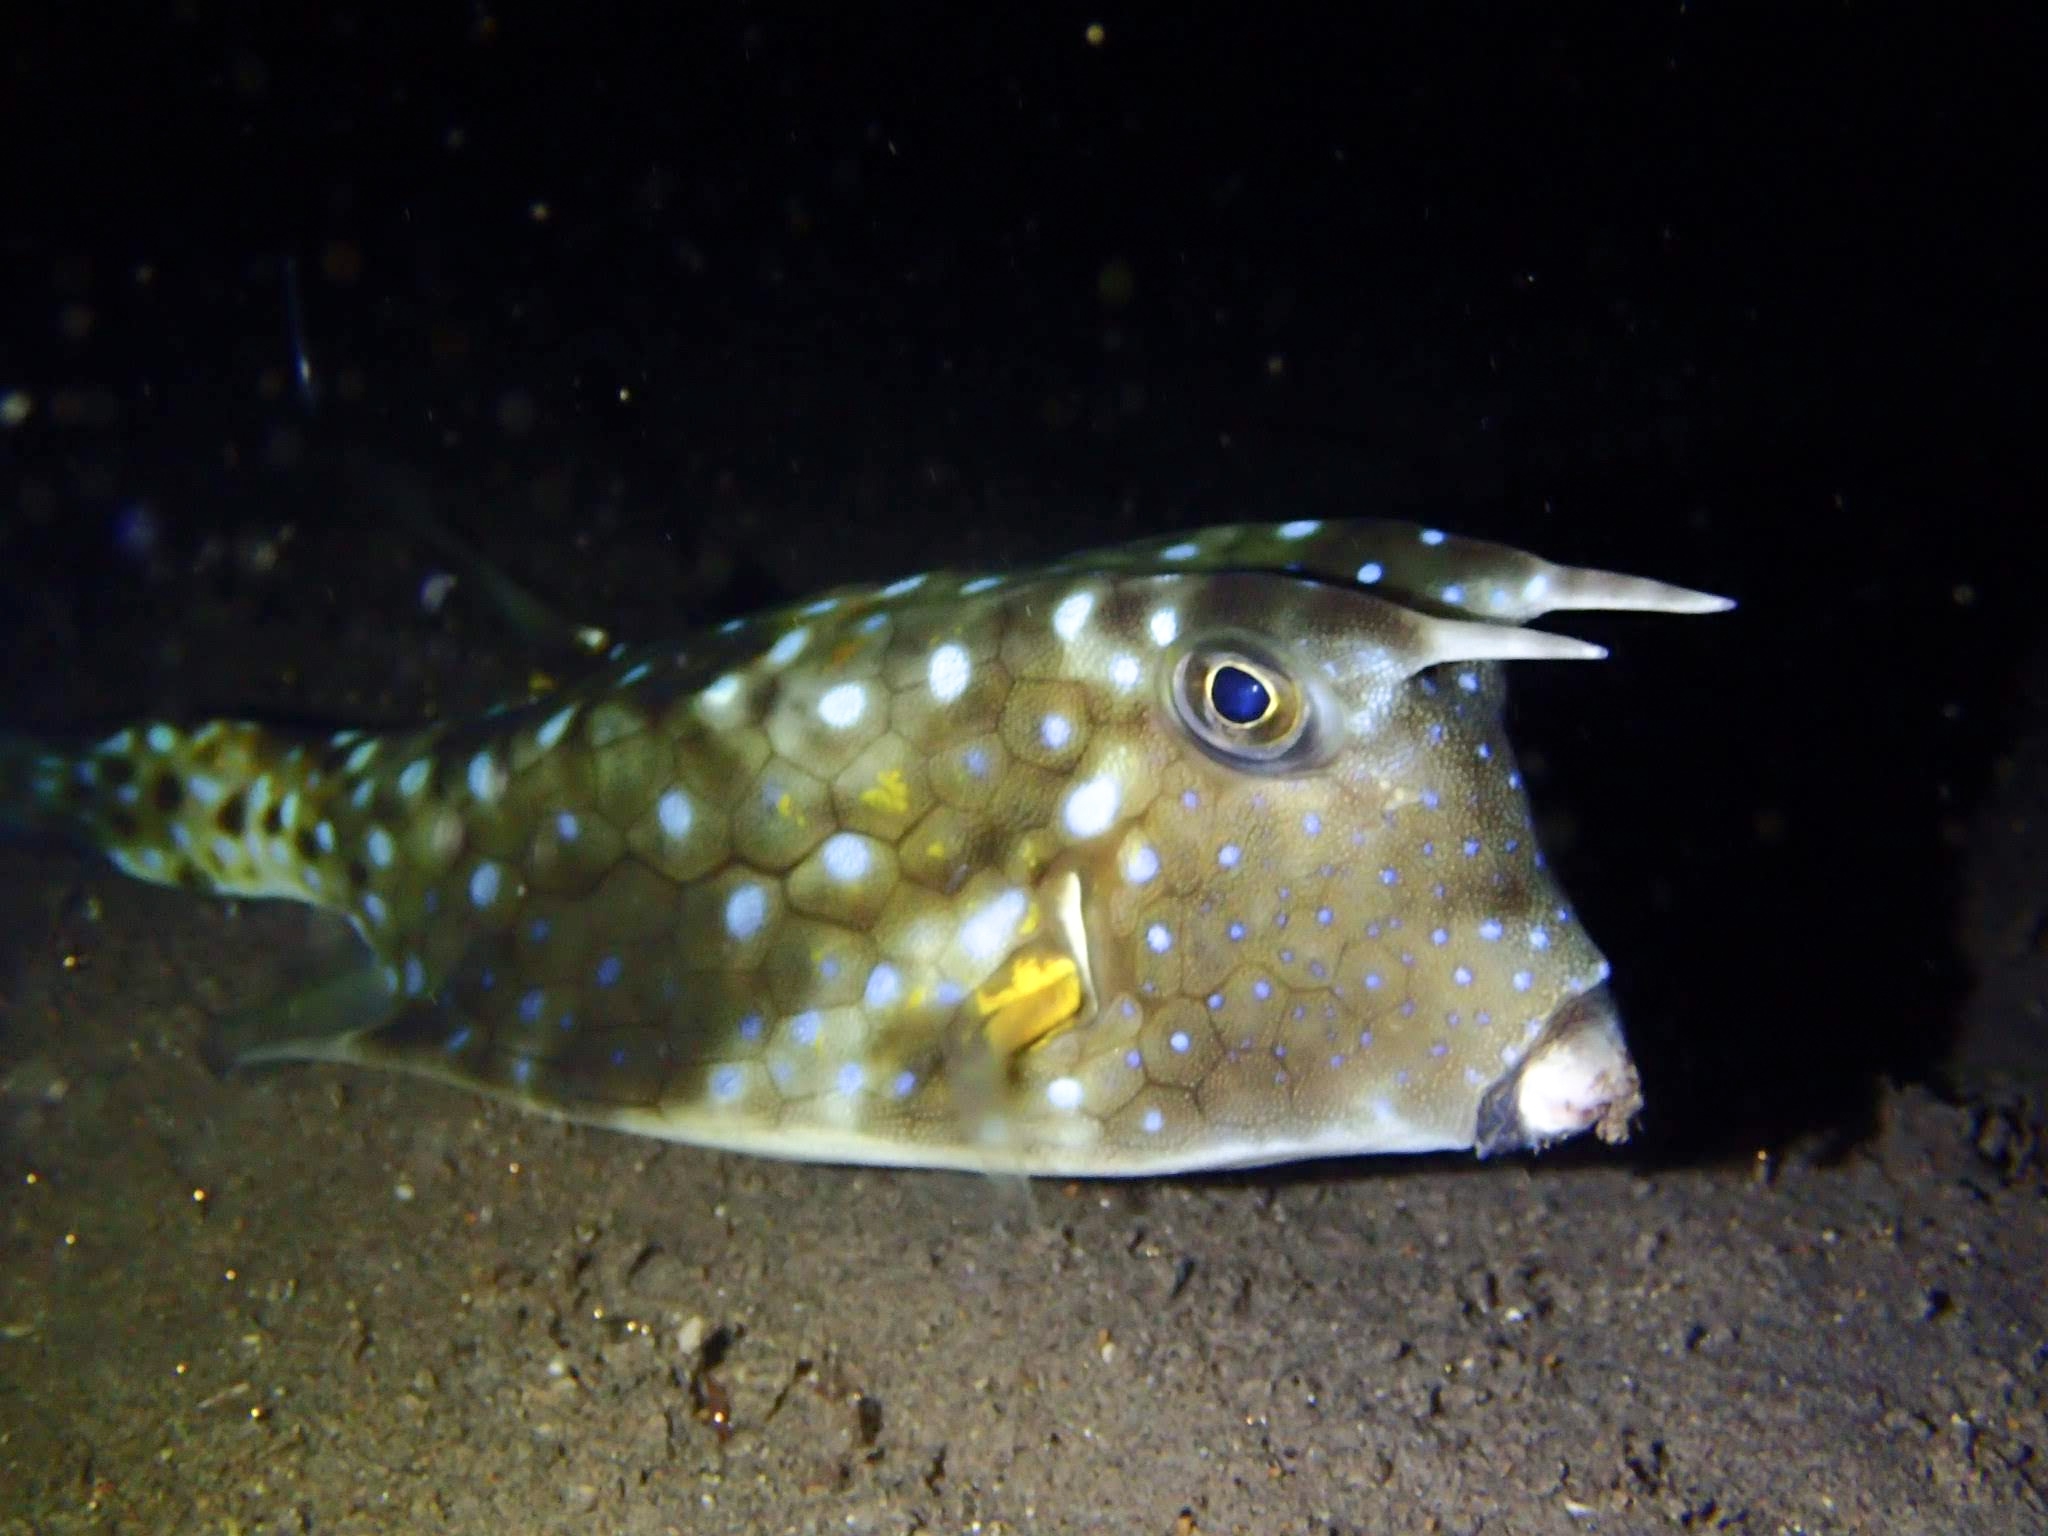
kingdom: Animalia
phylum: Chordata
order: Tetraodontiformes
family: Ostraciidae
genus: Lactoria
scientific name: Lactoria cornuta
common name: Longhorn cowfish
